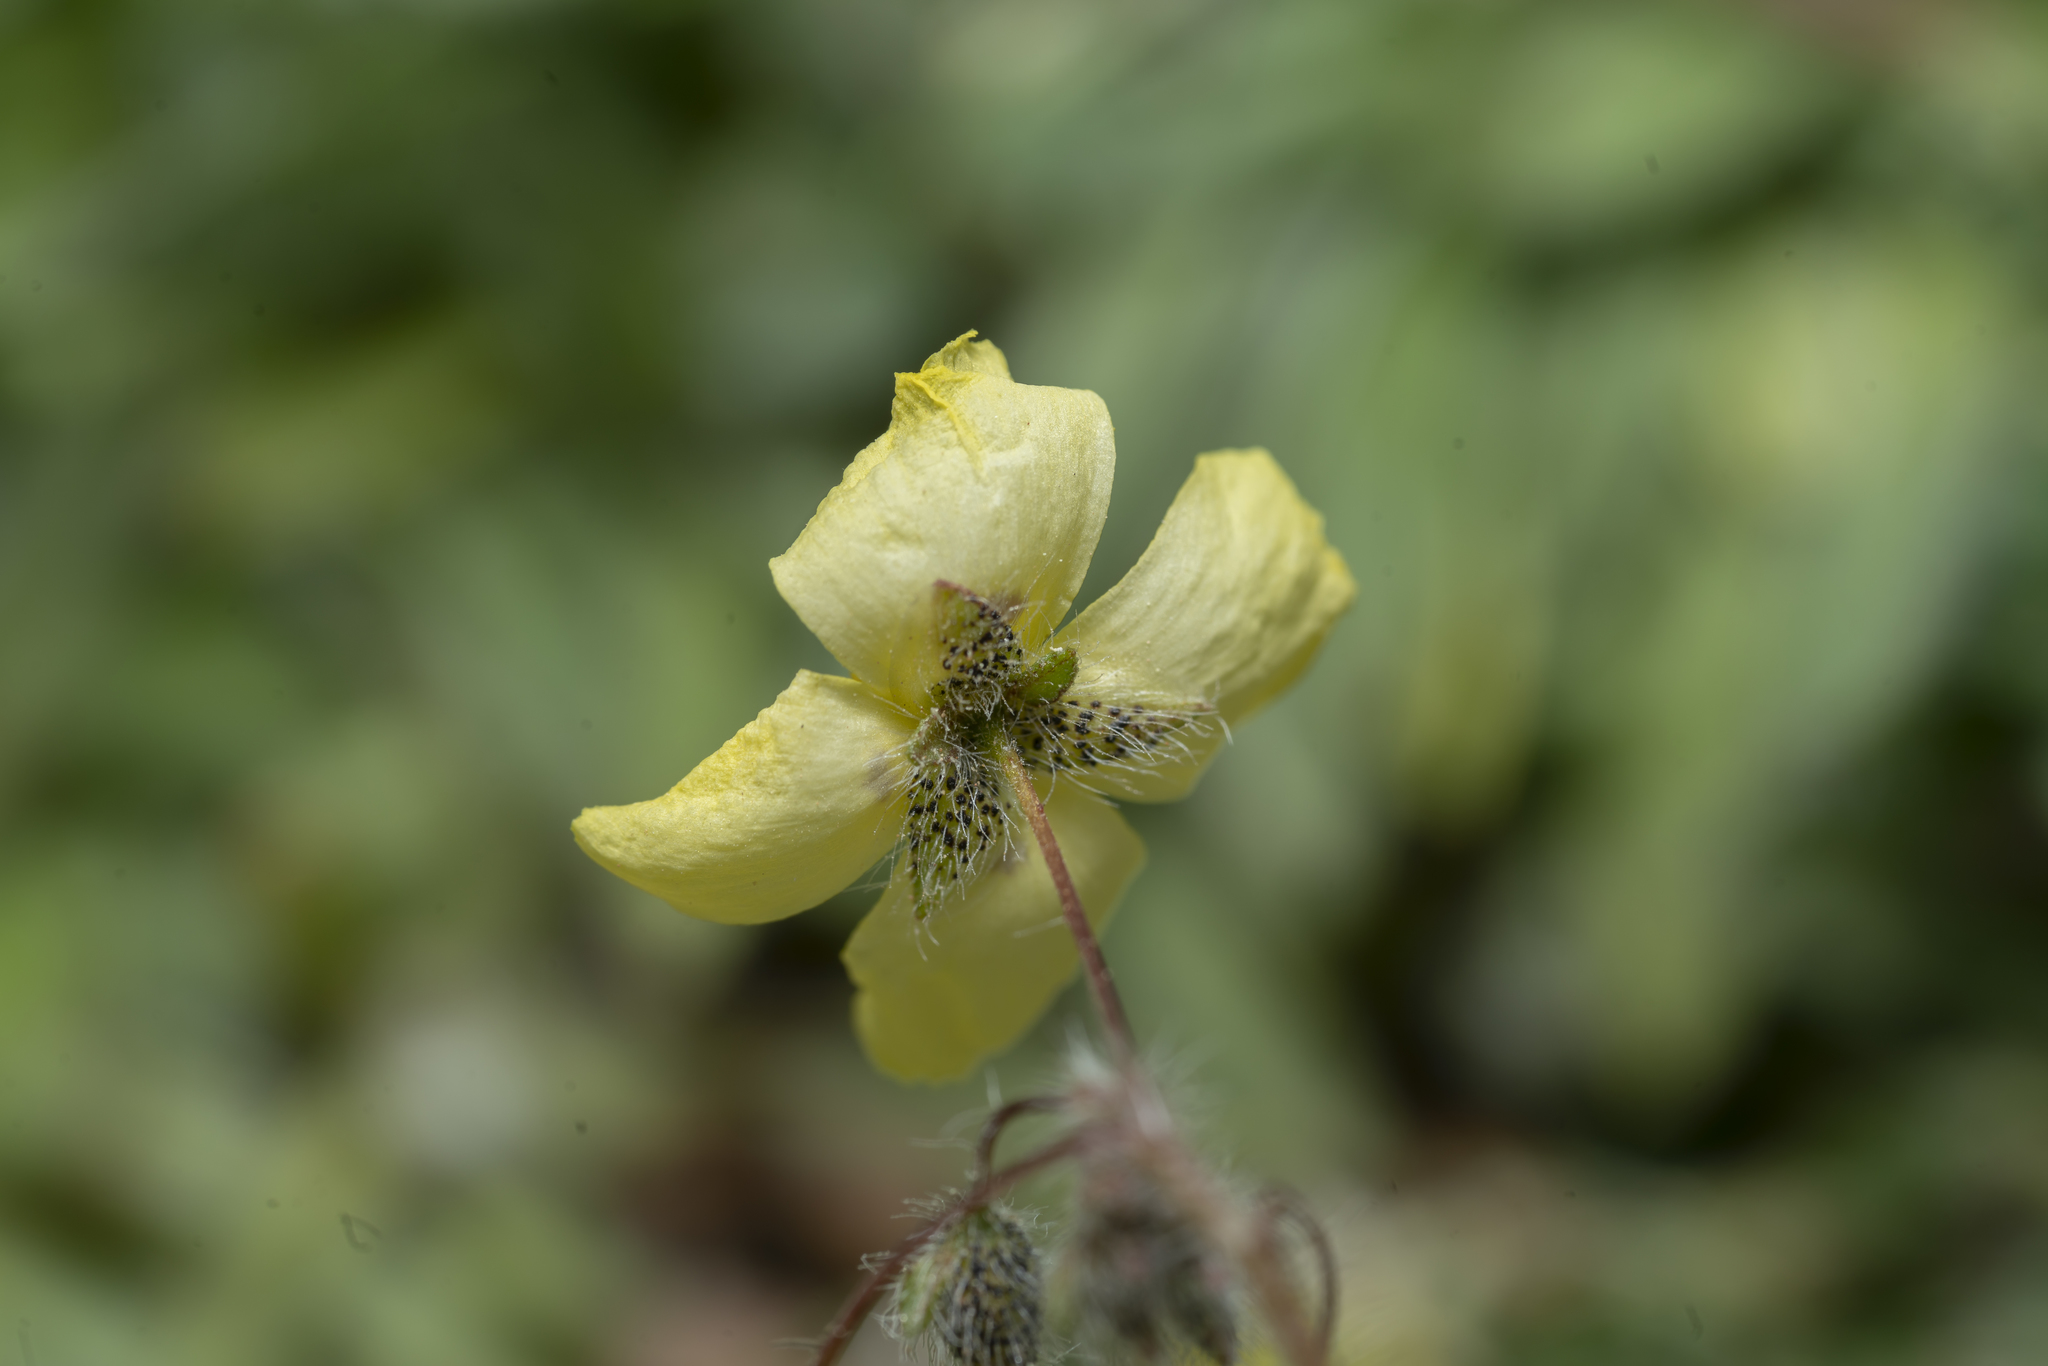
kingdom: Plantae
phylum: Tracheophyta
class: Magnoliopsida
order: Malvales
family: Cistaceae
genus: Tuberaria
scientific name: Tuberaria guttata
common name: Spotted rock-rose
